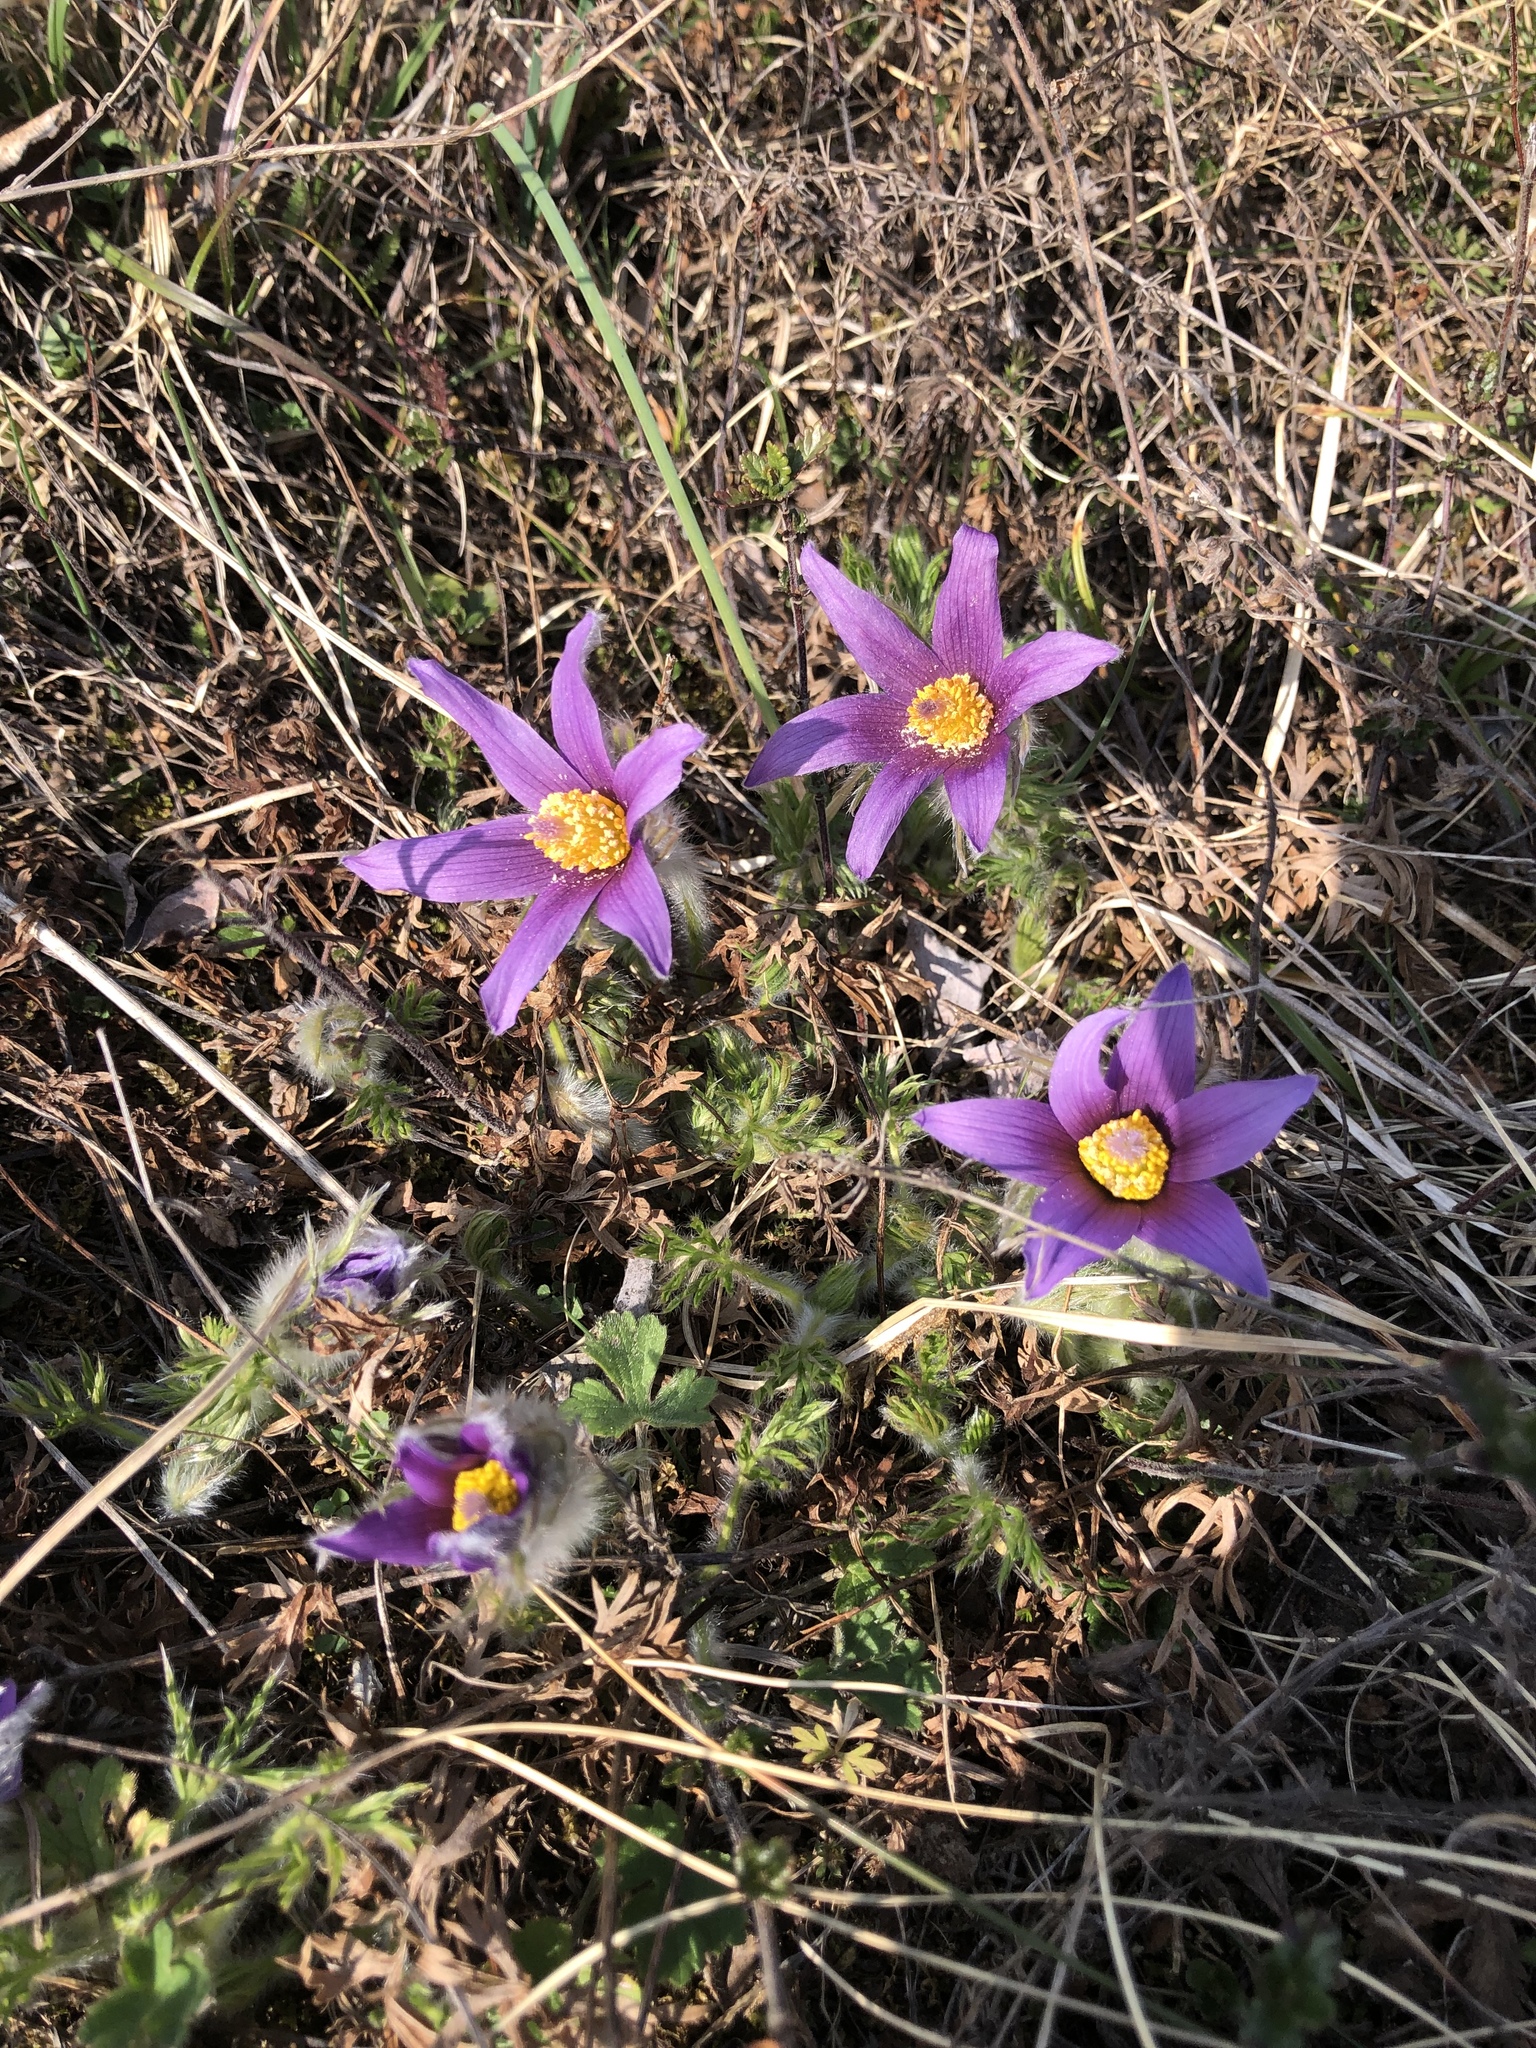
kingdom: Plantae
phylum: Tracheophyta
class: Magnoliopsida
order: Ranunculales
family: Ranunculaceae
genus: Pulsatilla
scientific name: Pulsatilla vulgaris
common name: Pasqueflower
